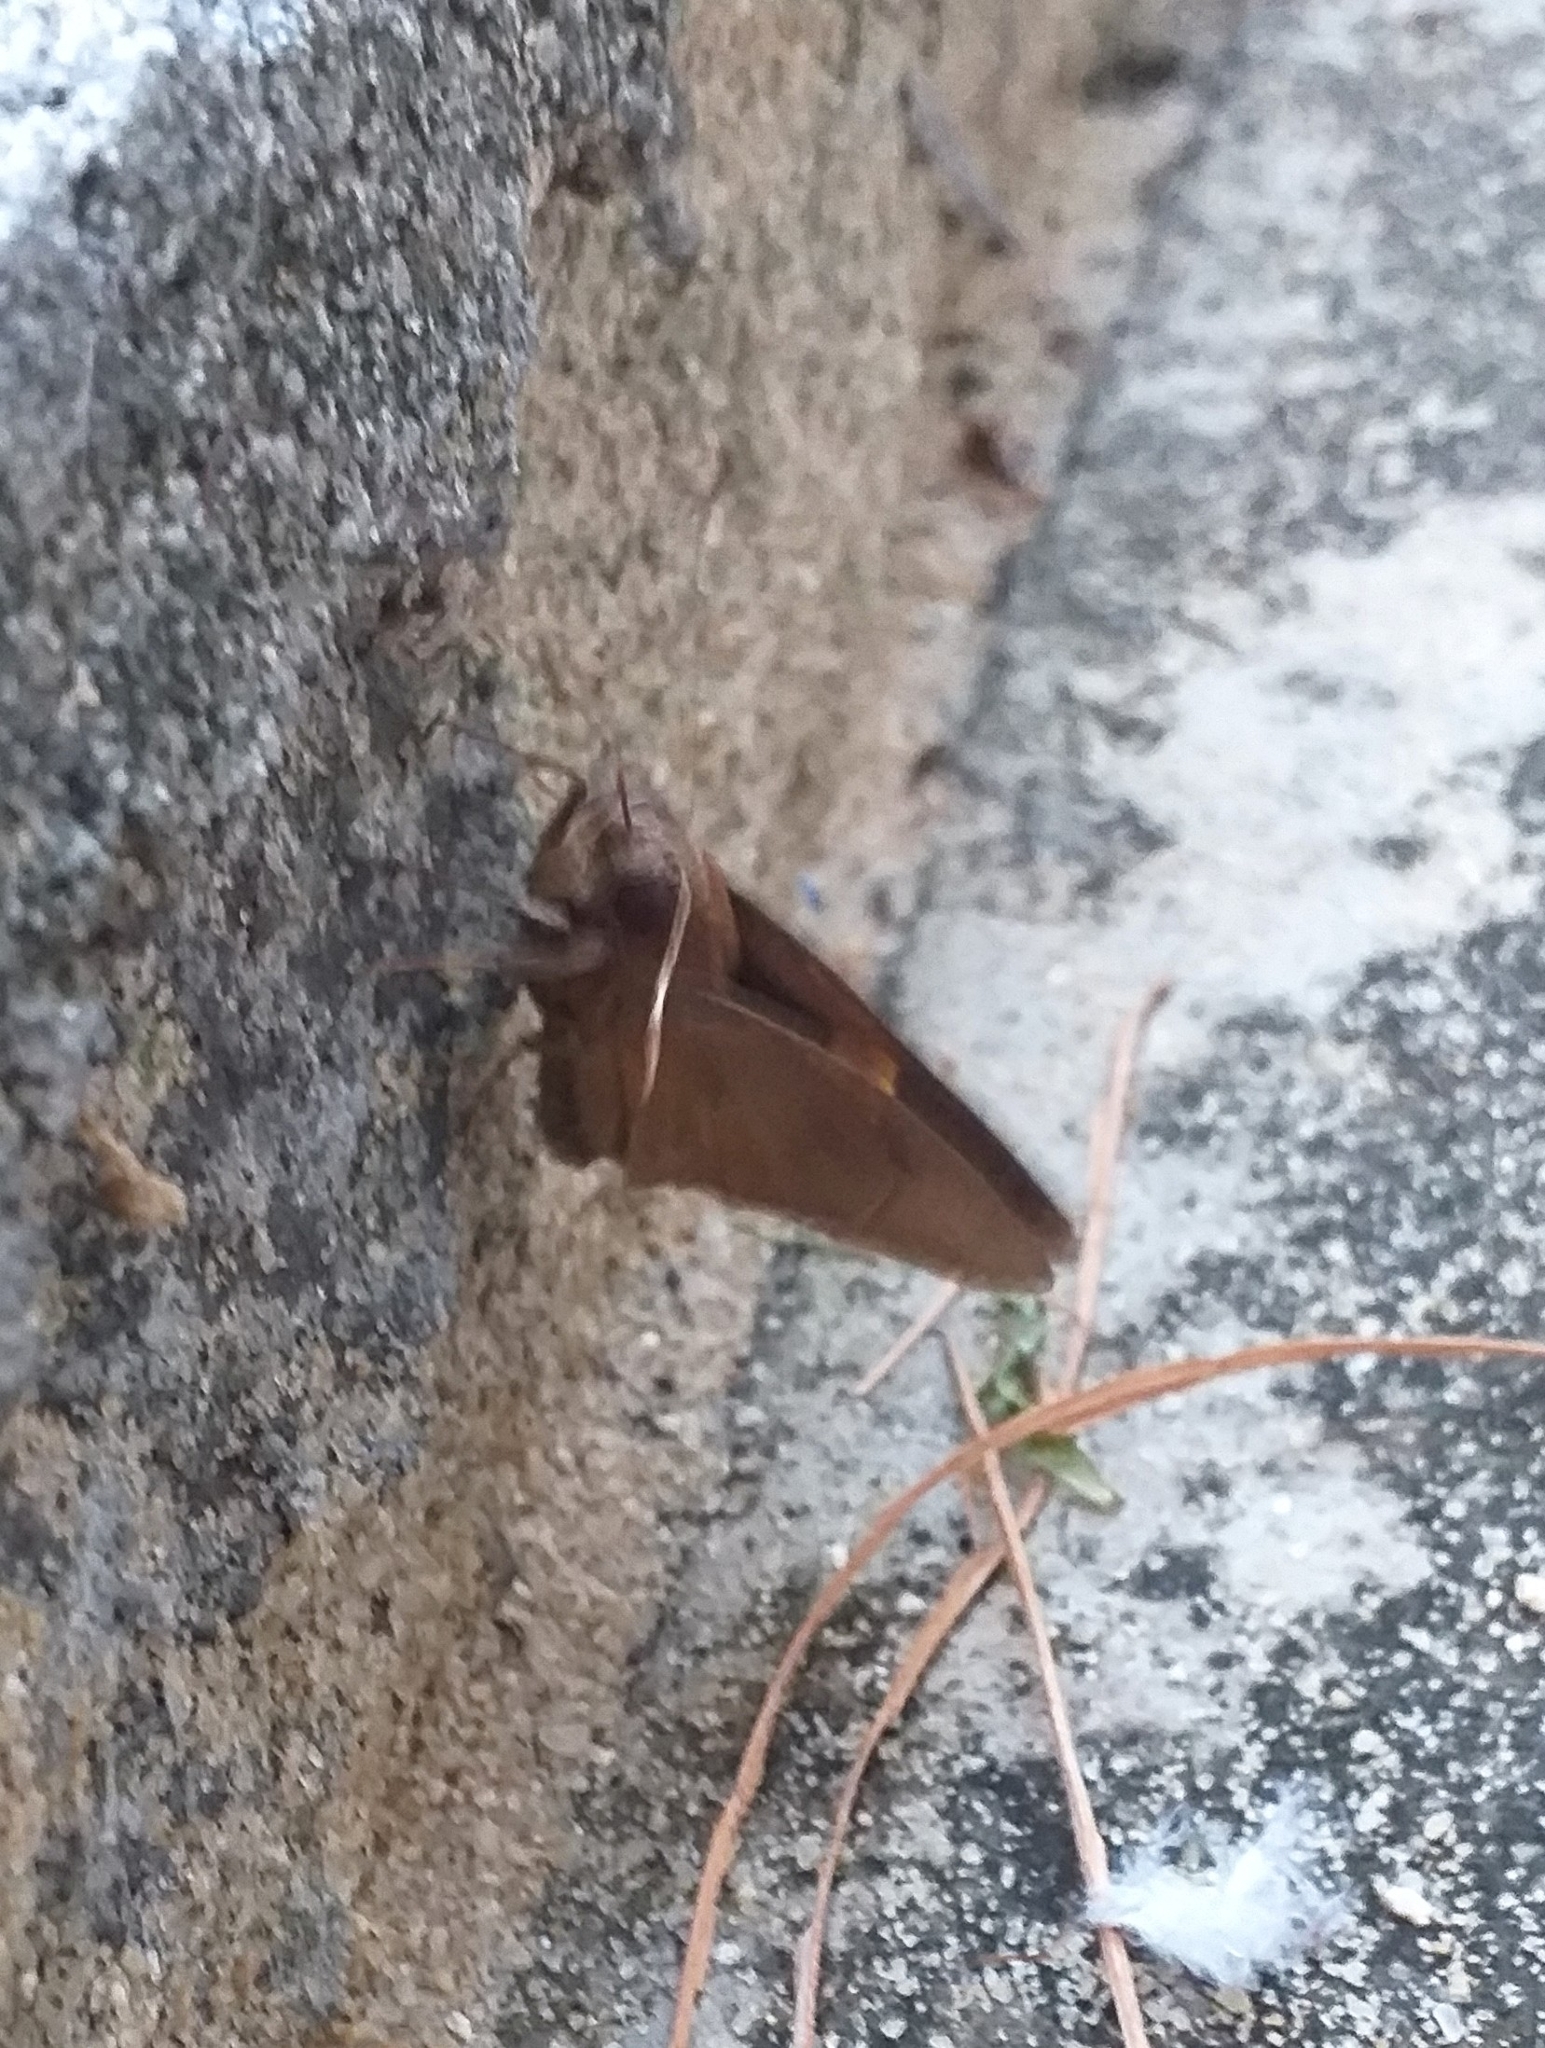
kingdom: Animalia
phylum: Arthropoda
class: Insecta
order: Lepidoptera
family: Hesperiidae
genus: Matapa
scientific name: Matapa aria
